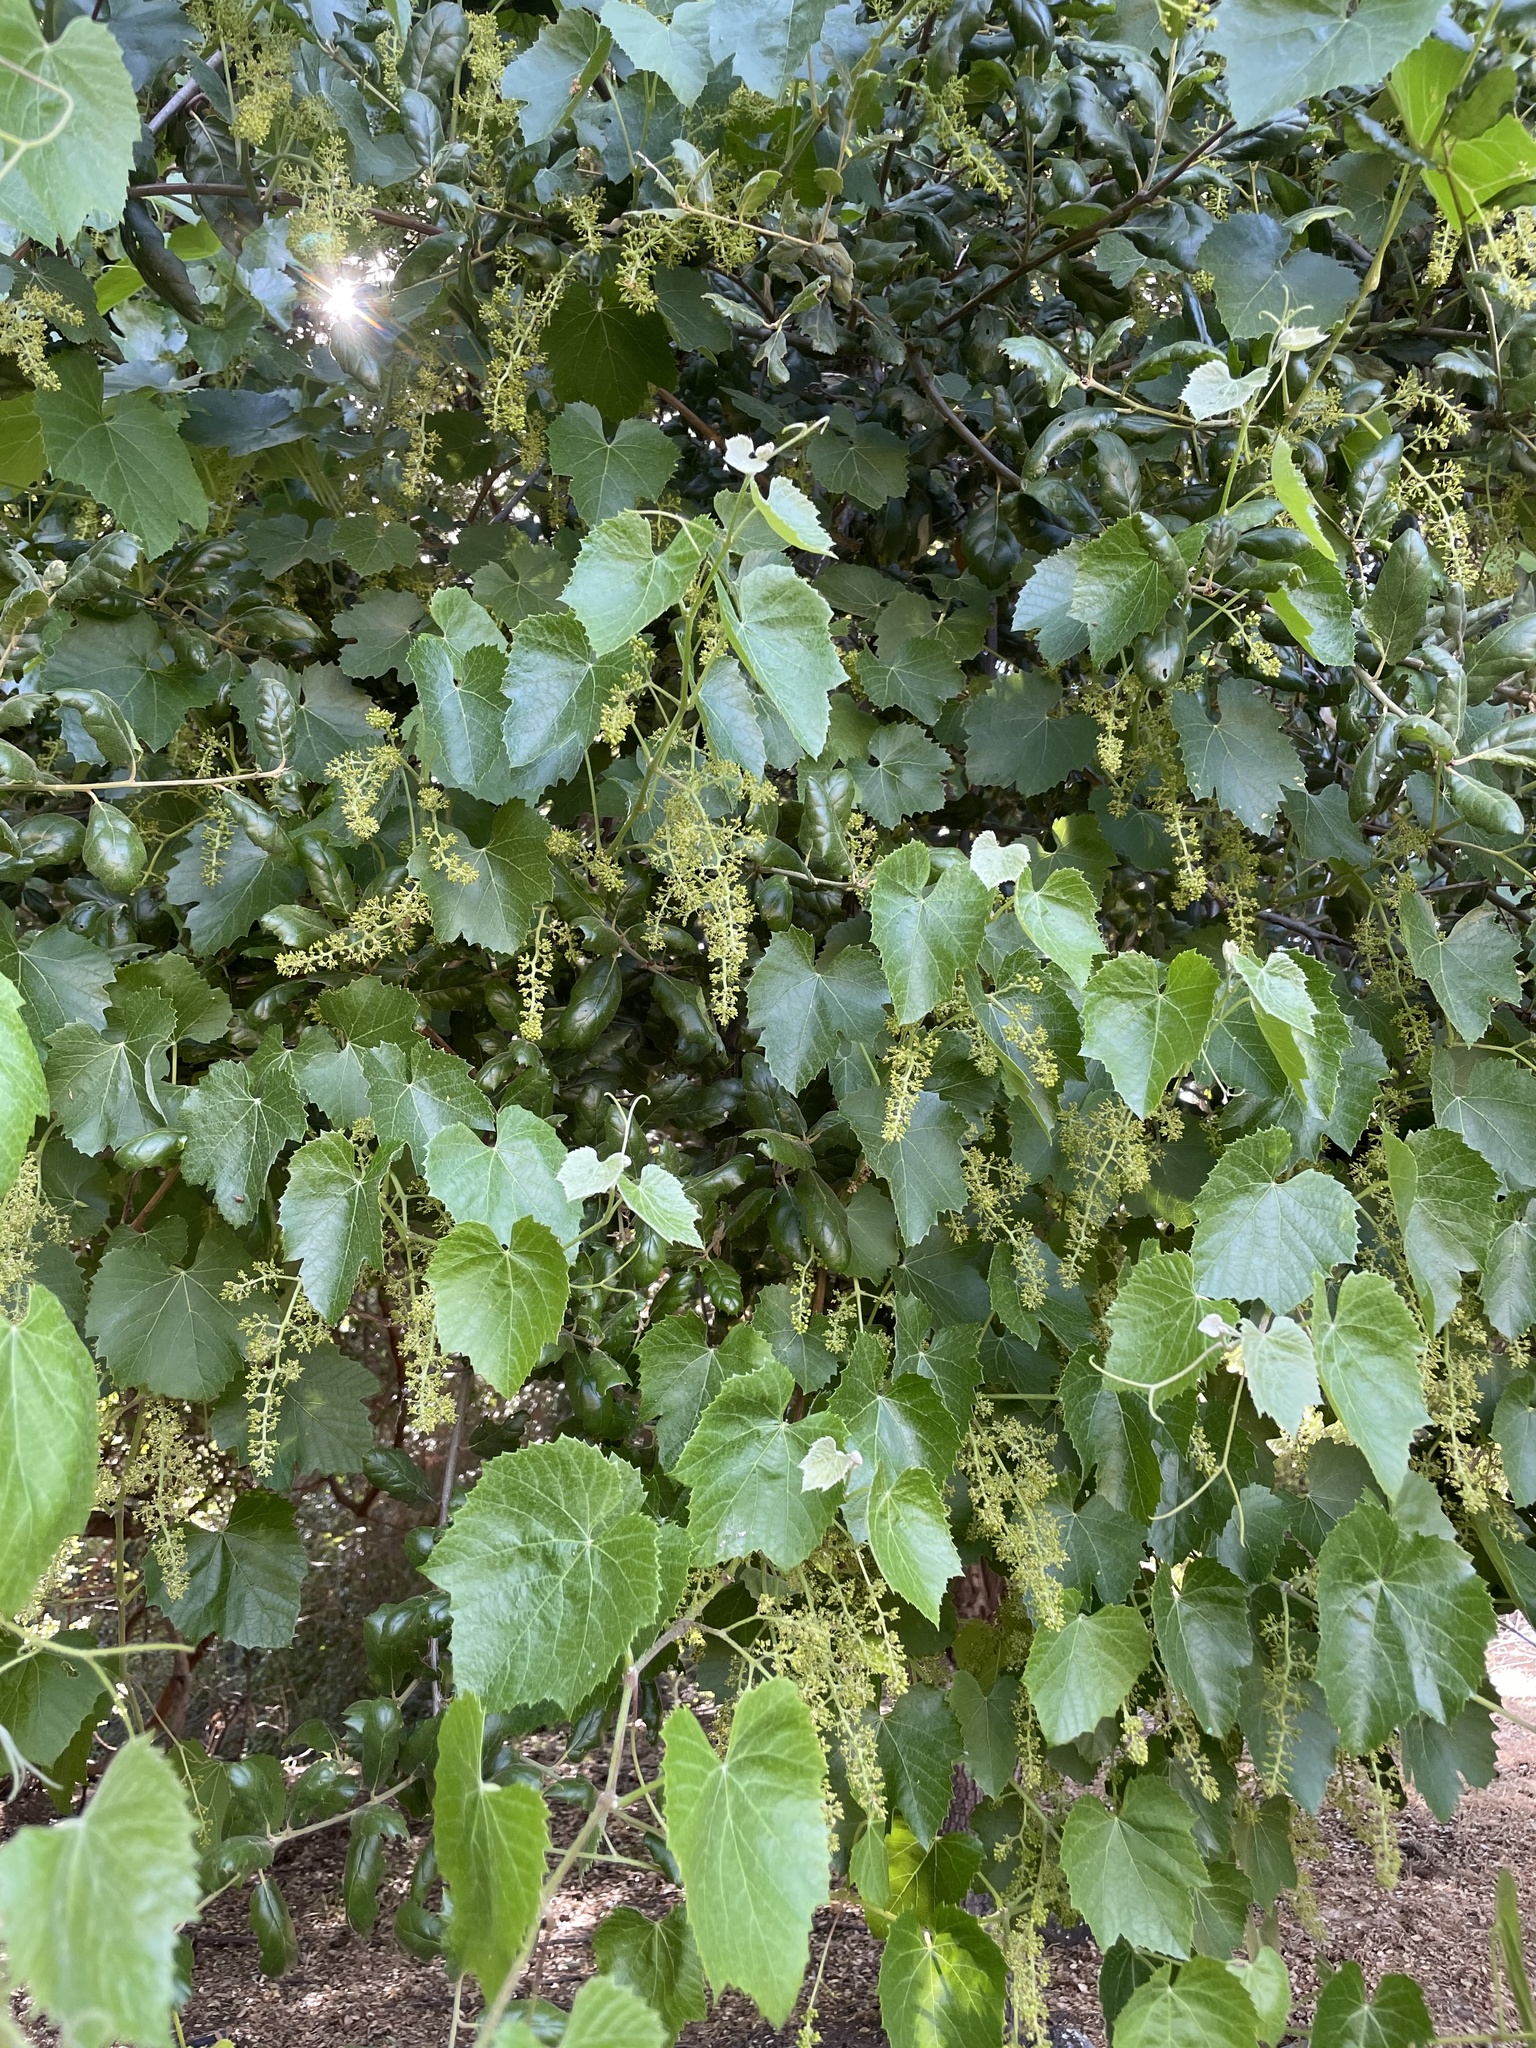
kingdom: Plantae
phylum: Tracheophyta
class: Magnoliopsida
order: Vitales
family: Vitaceae
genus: Vitis
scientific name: Vitis girdiana
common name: Desert wild grape
